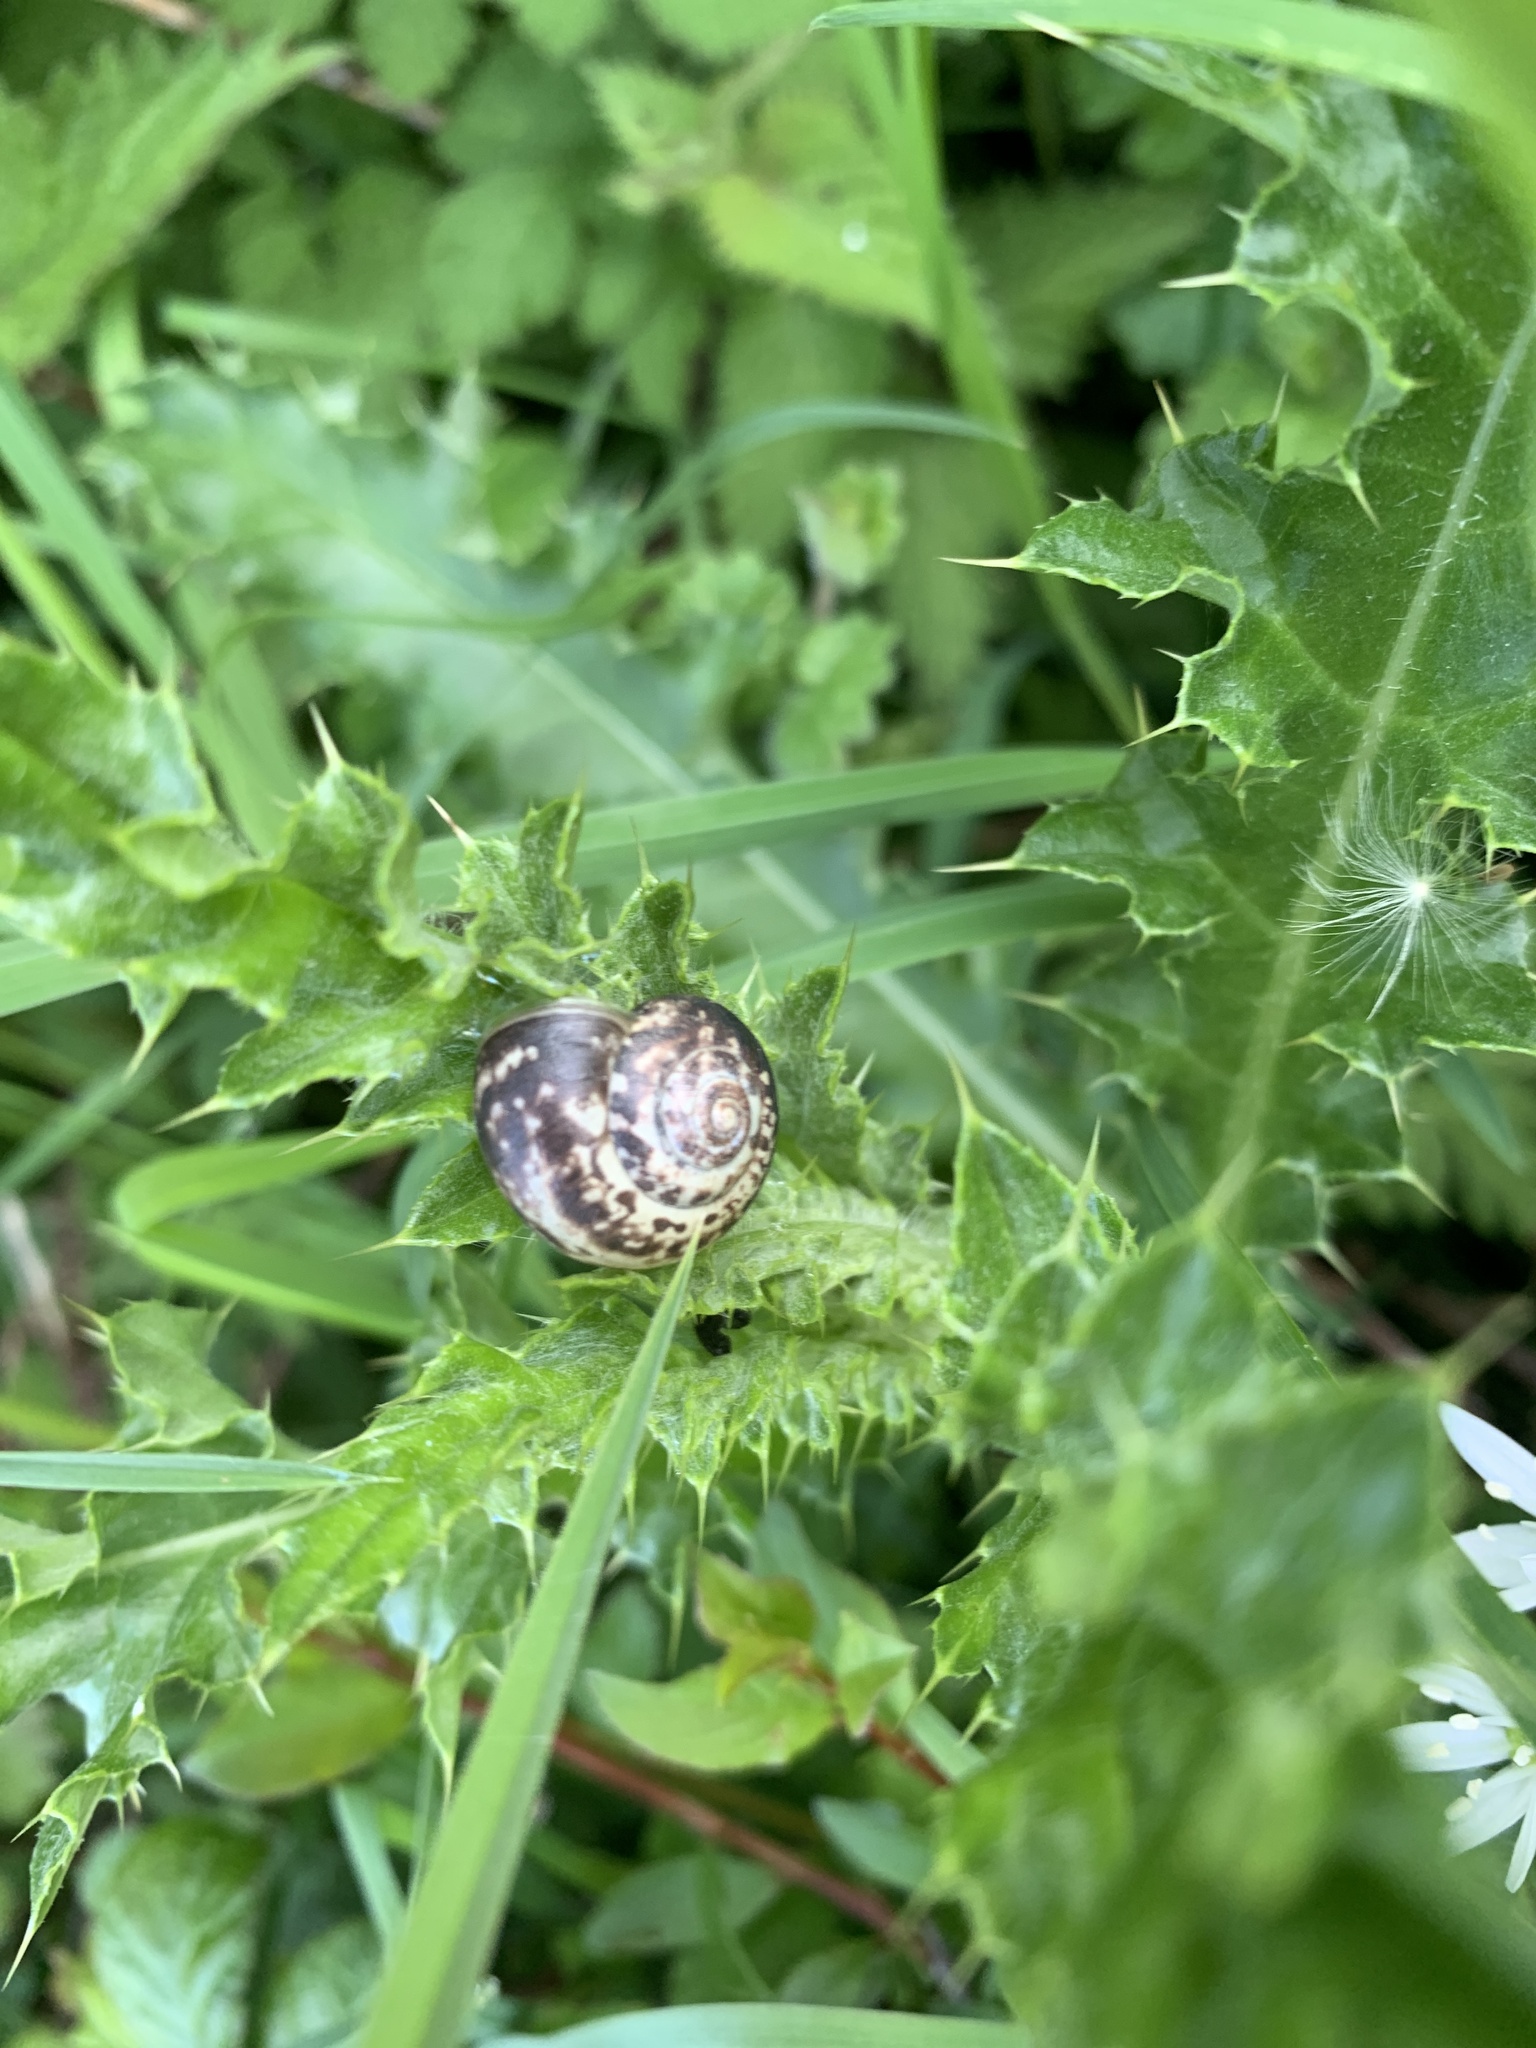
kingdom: Animalia
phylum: Mollusca
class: Gastropoda
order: Stylommatophora
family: Hygromiidae
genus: Monacha
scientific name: Monacha cantiana
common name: Kentish snail
